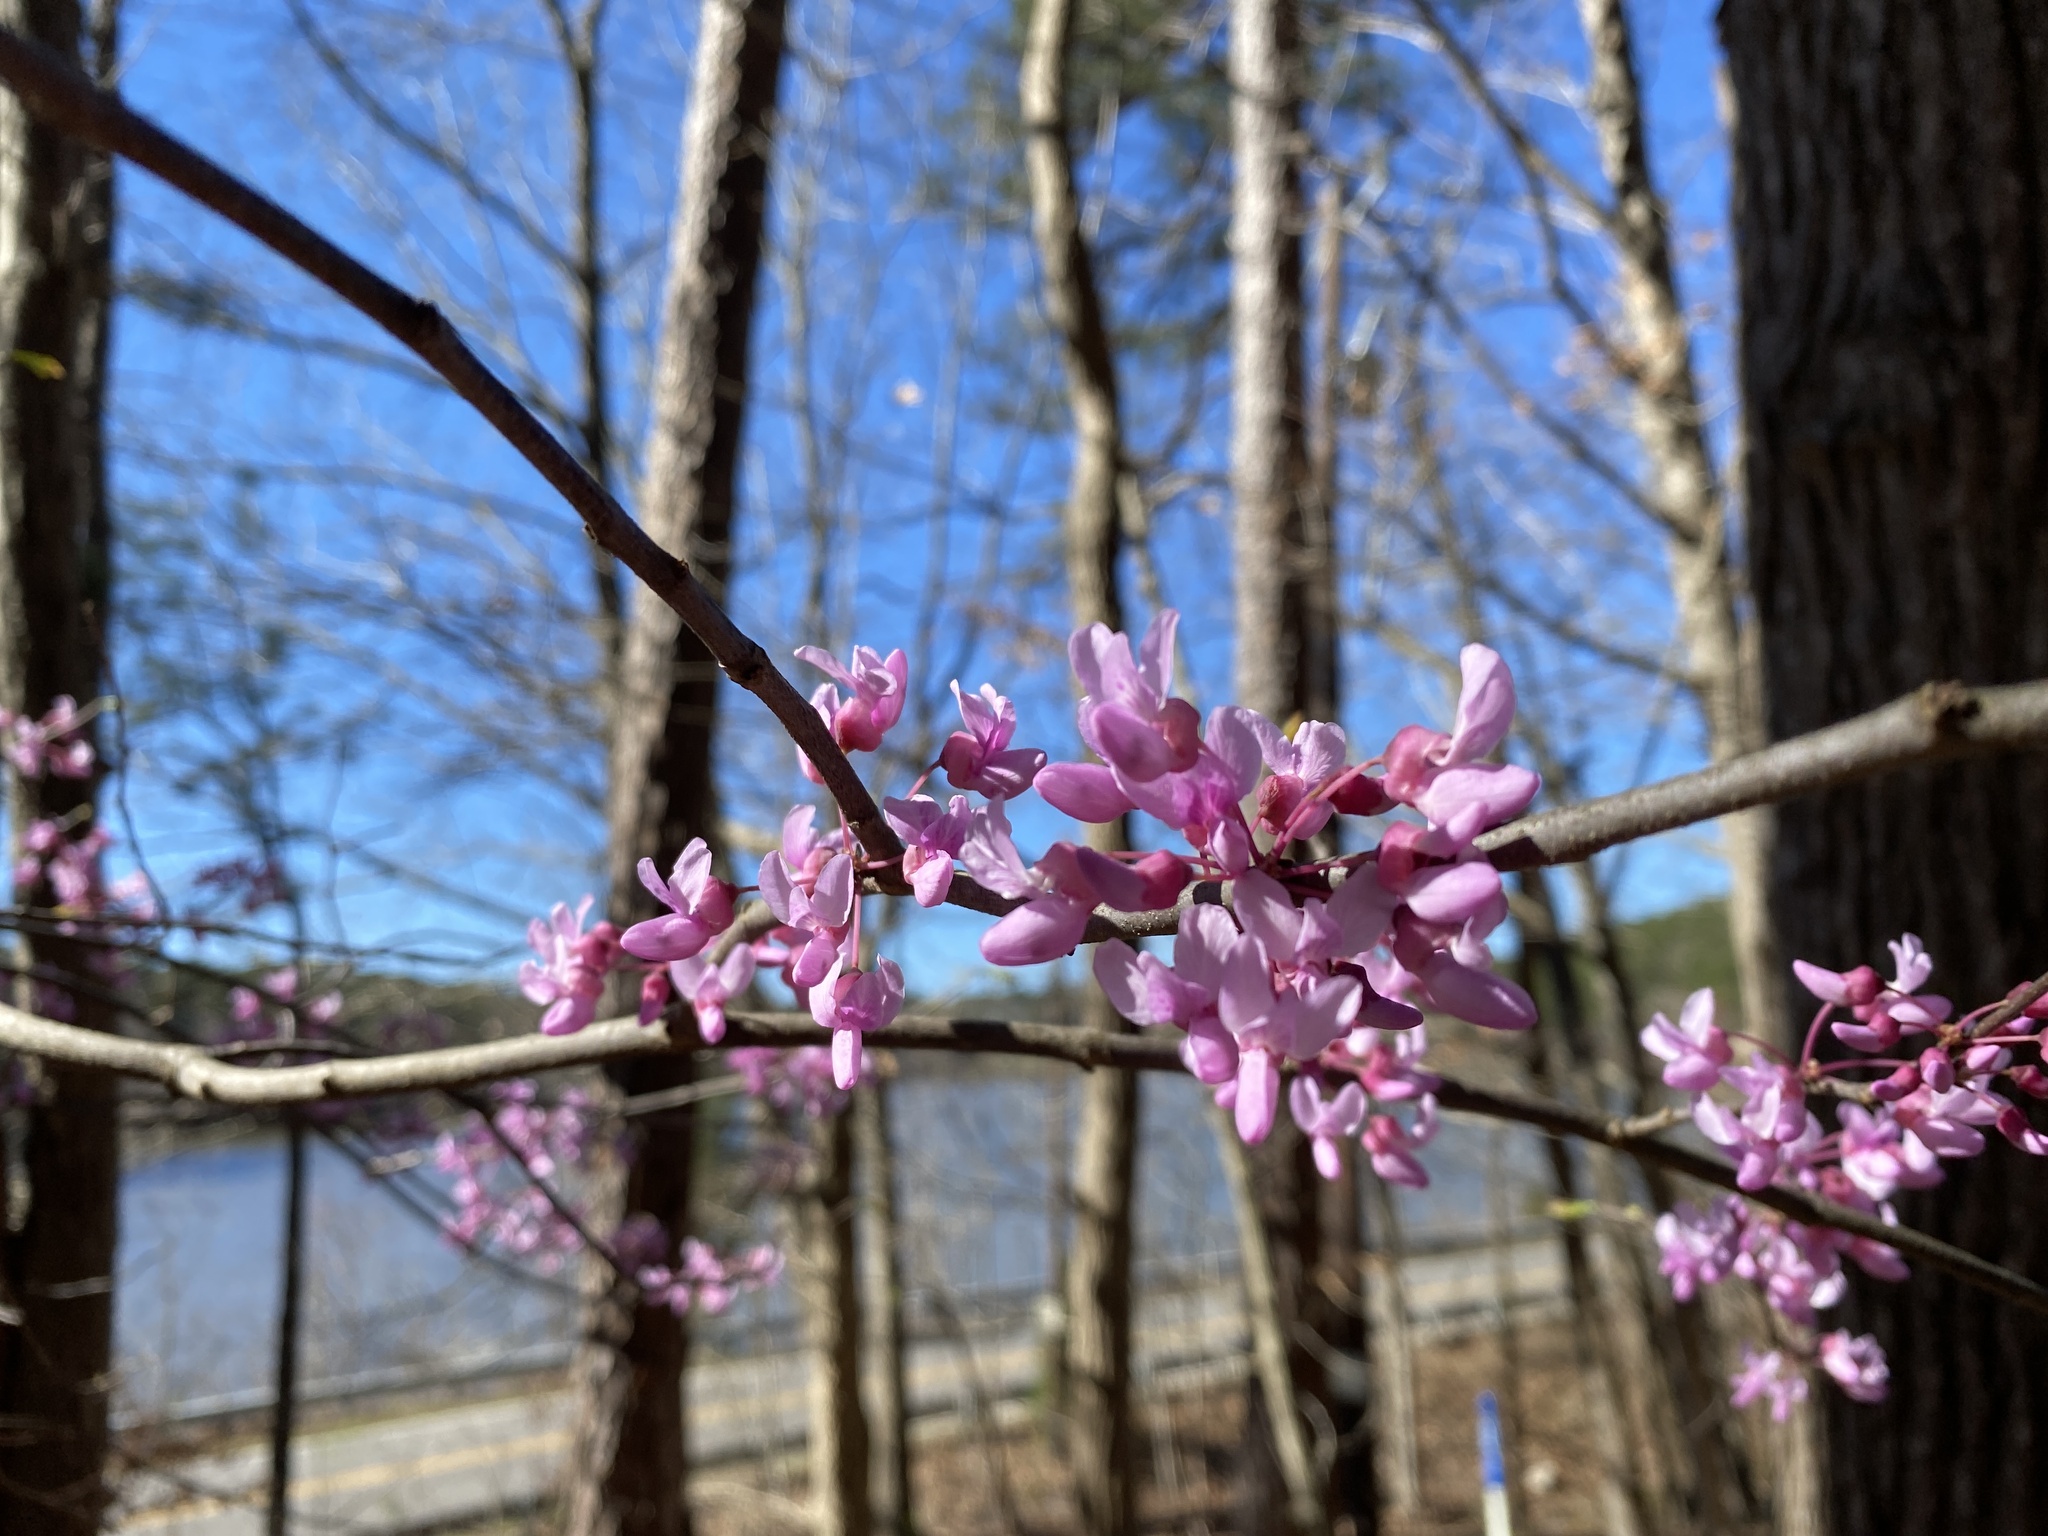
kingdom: Plantae
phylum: Tracheophyta
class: Magnoliopsida
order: Fabales
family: Fabaceae
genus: Cercis
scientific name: Cercis canadensis
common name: Eastern redbud
